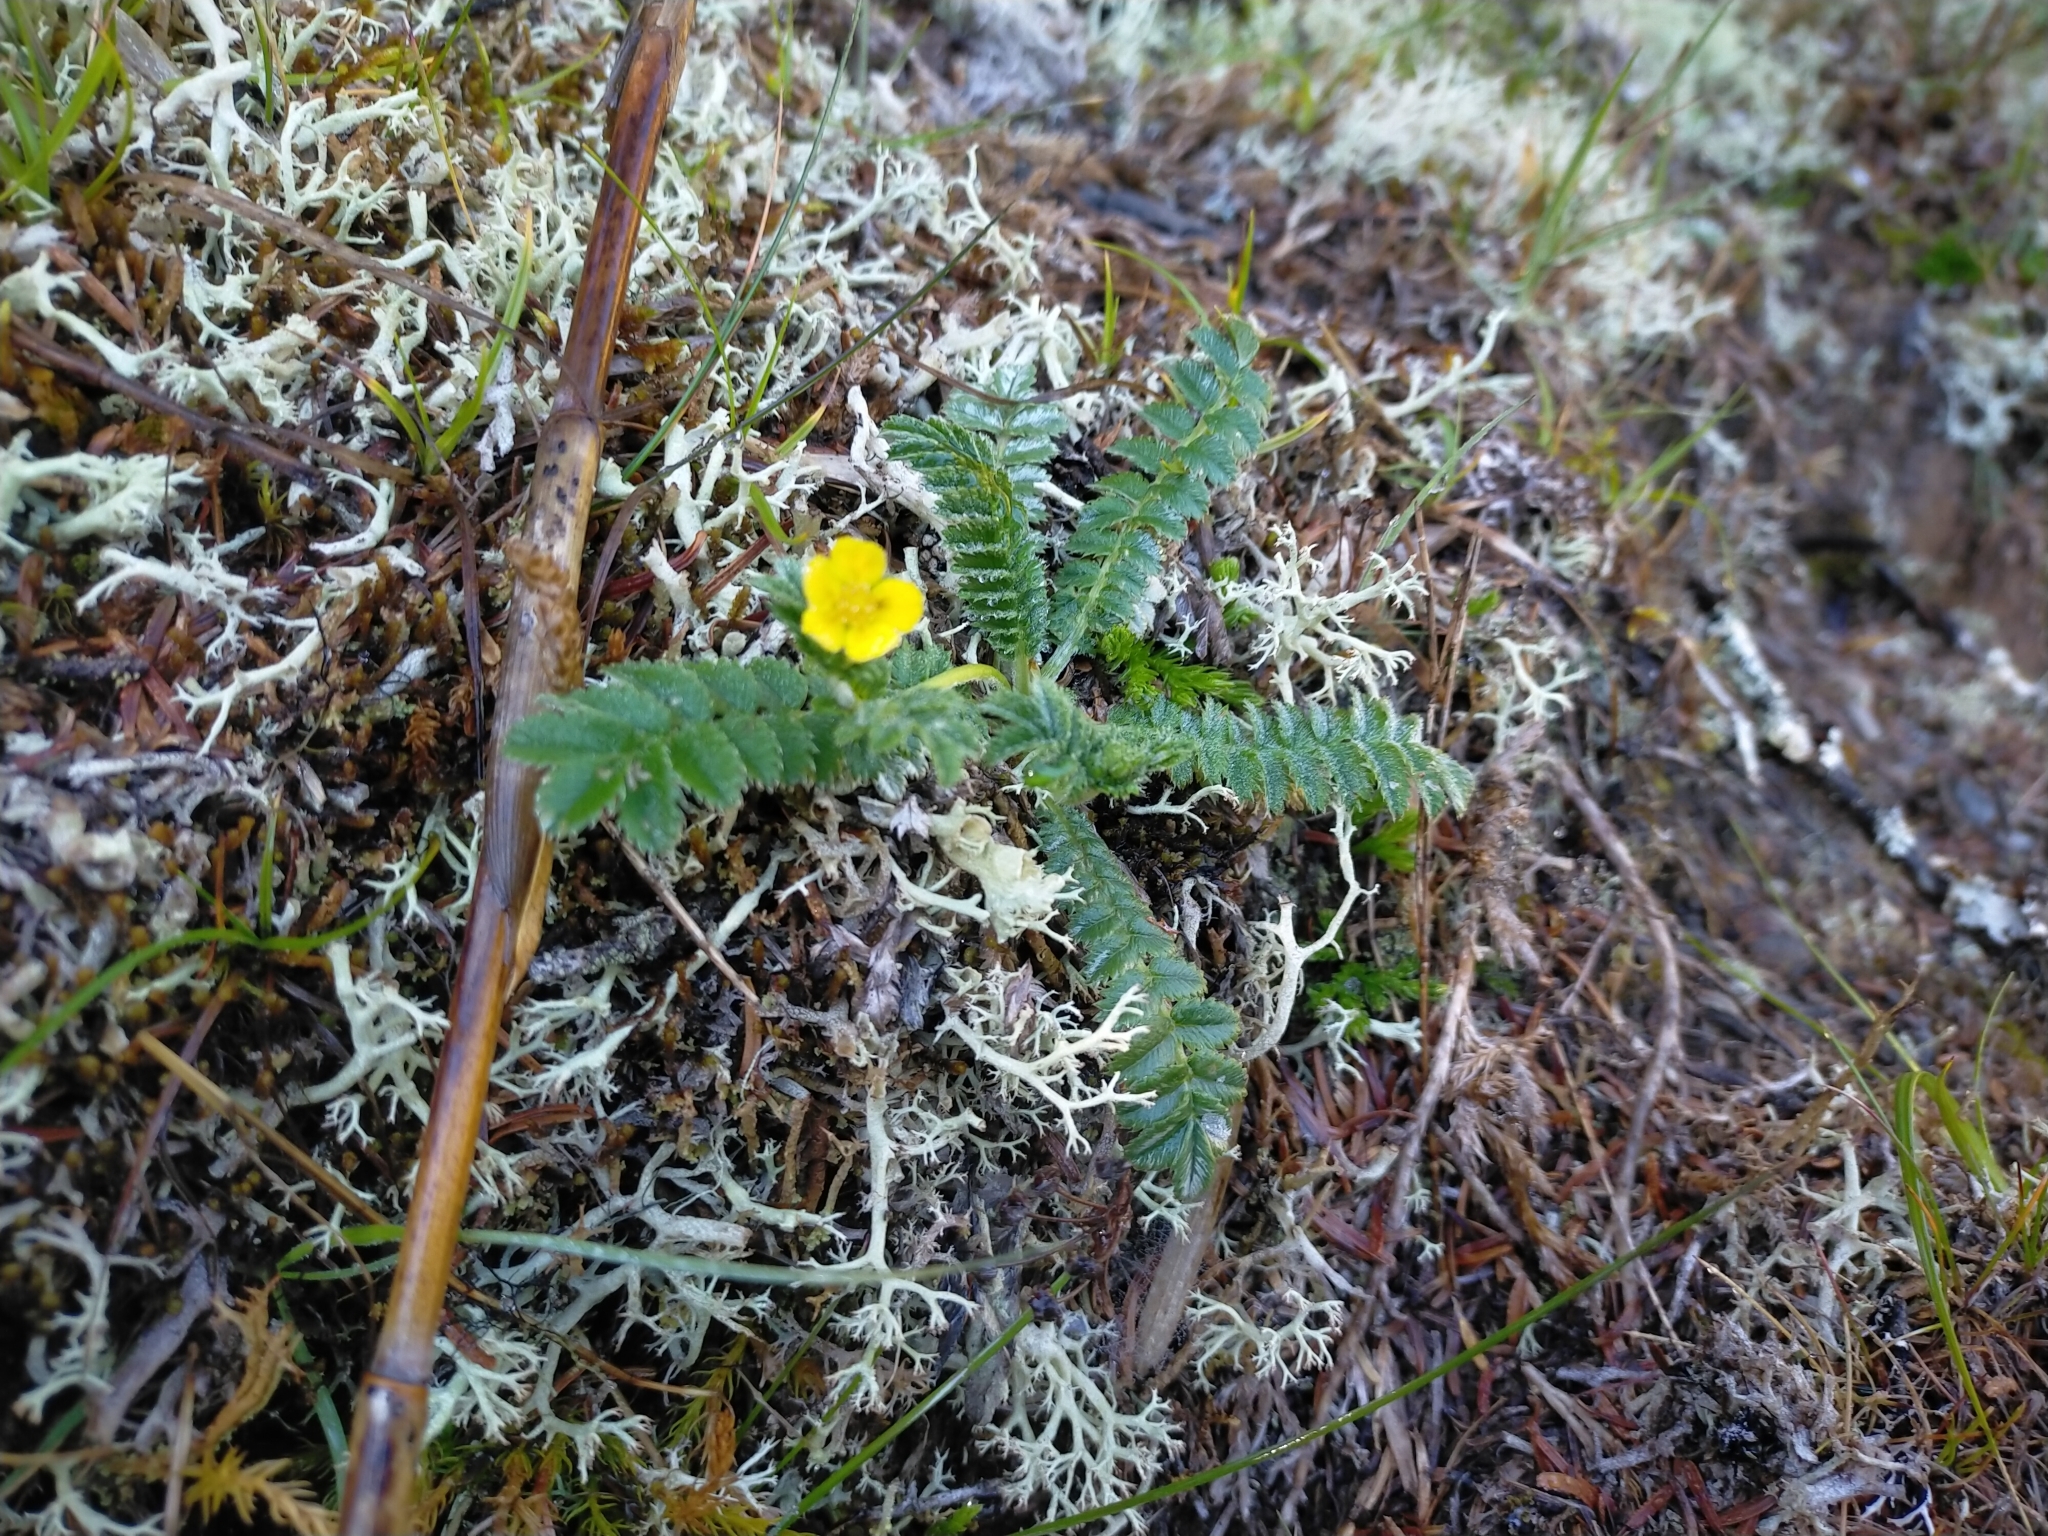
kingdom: Plantae
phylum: Tracheophyta
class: Magnoliopsida
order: Rosales
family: Rosaceae
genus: Argentina
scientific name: Argentina leuconota
